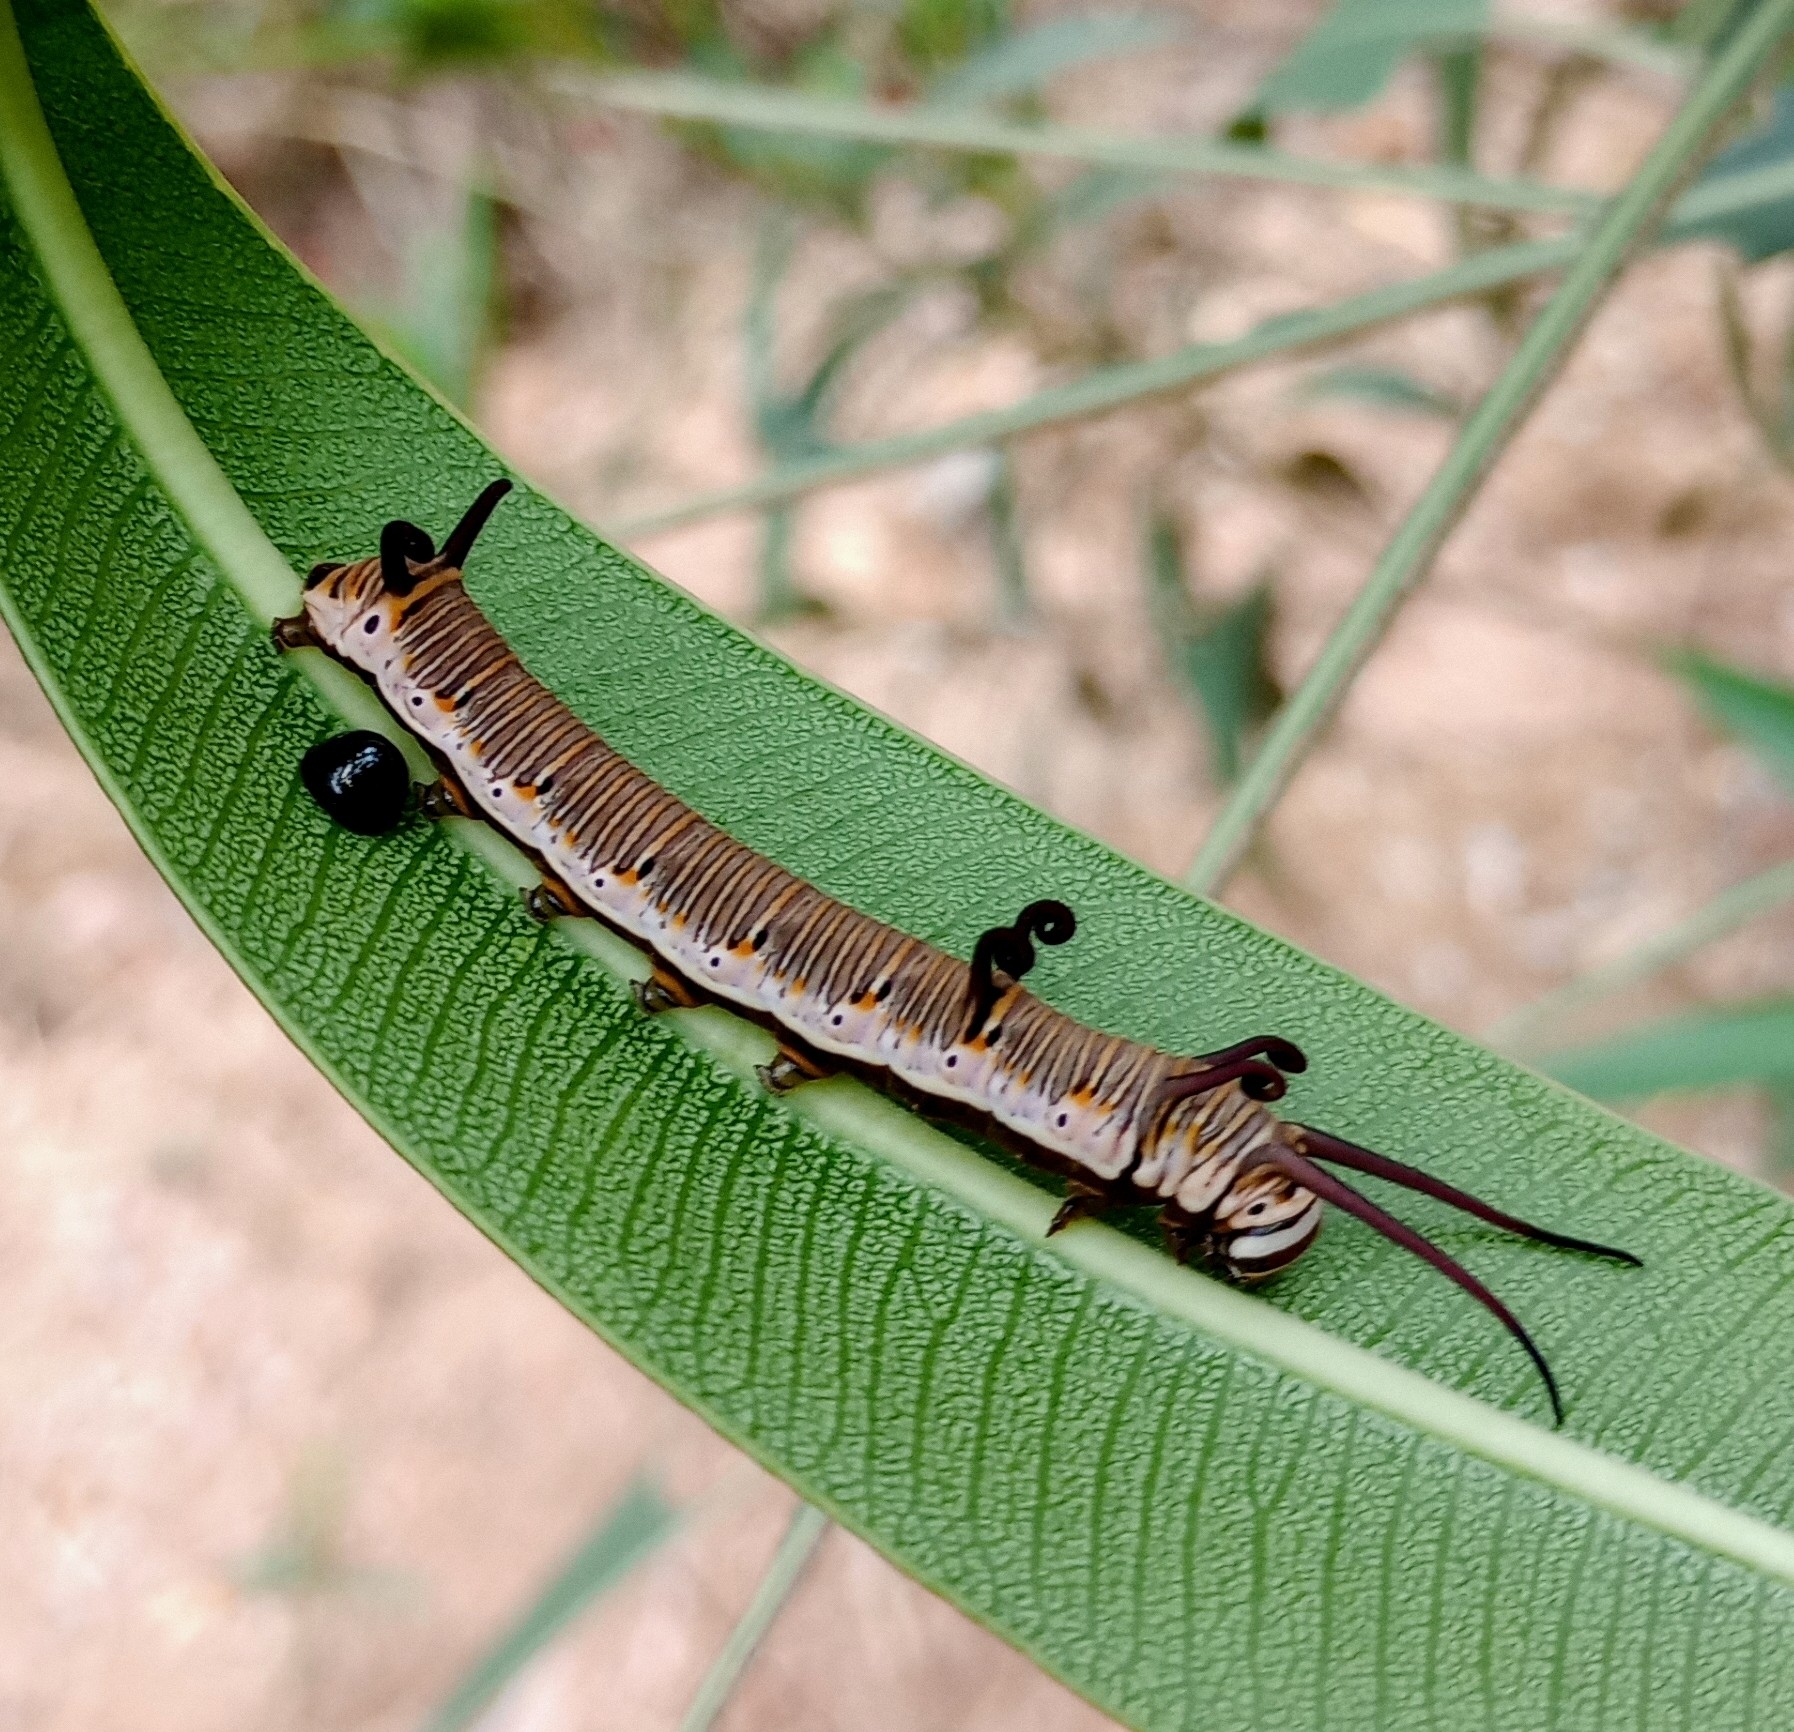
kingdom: Animalia
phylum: Arthropoda
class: Insecta
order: Lepidoptera
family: Nymphalidae
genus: Euploea
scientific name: Euploea core
